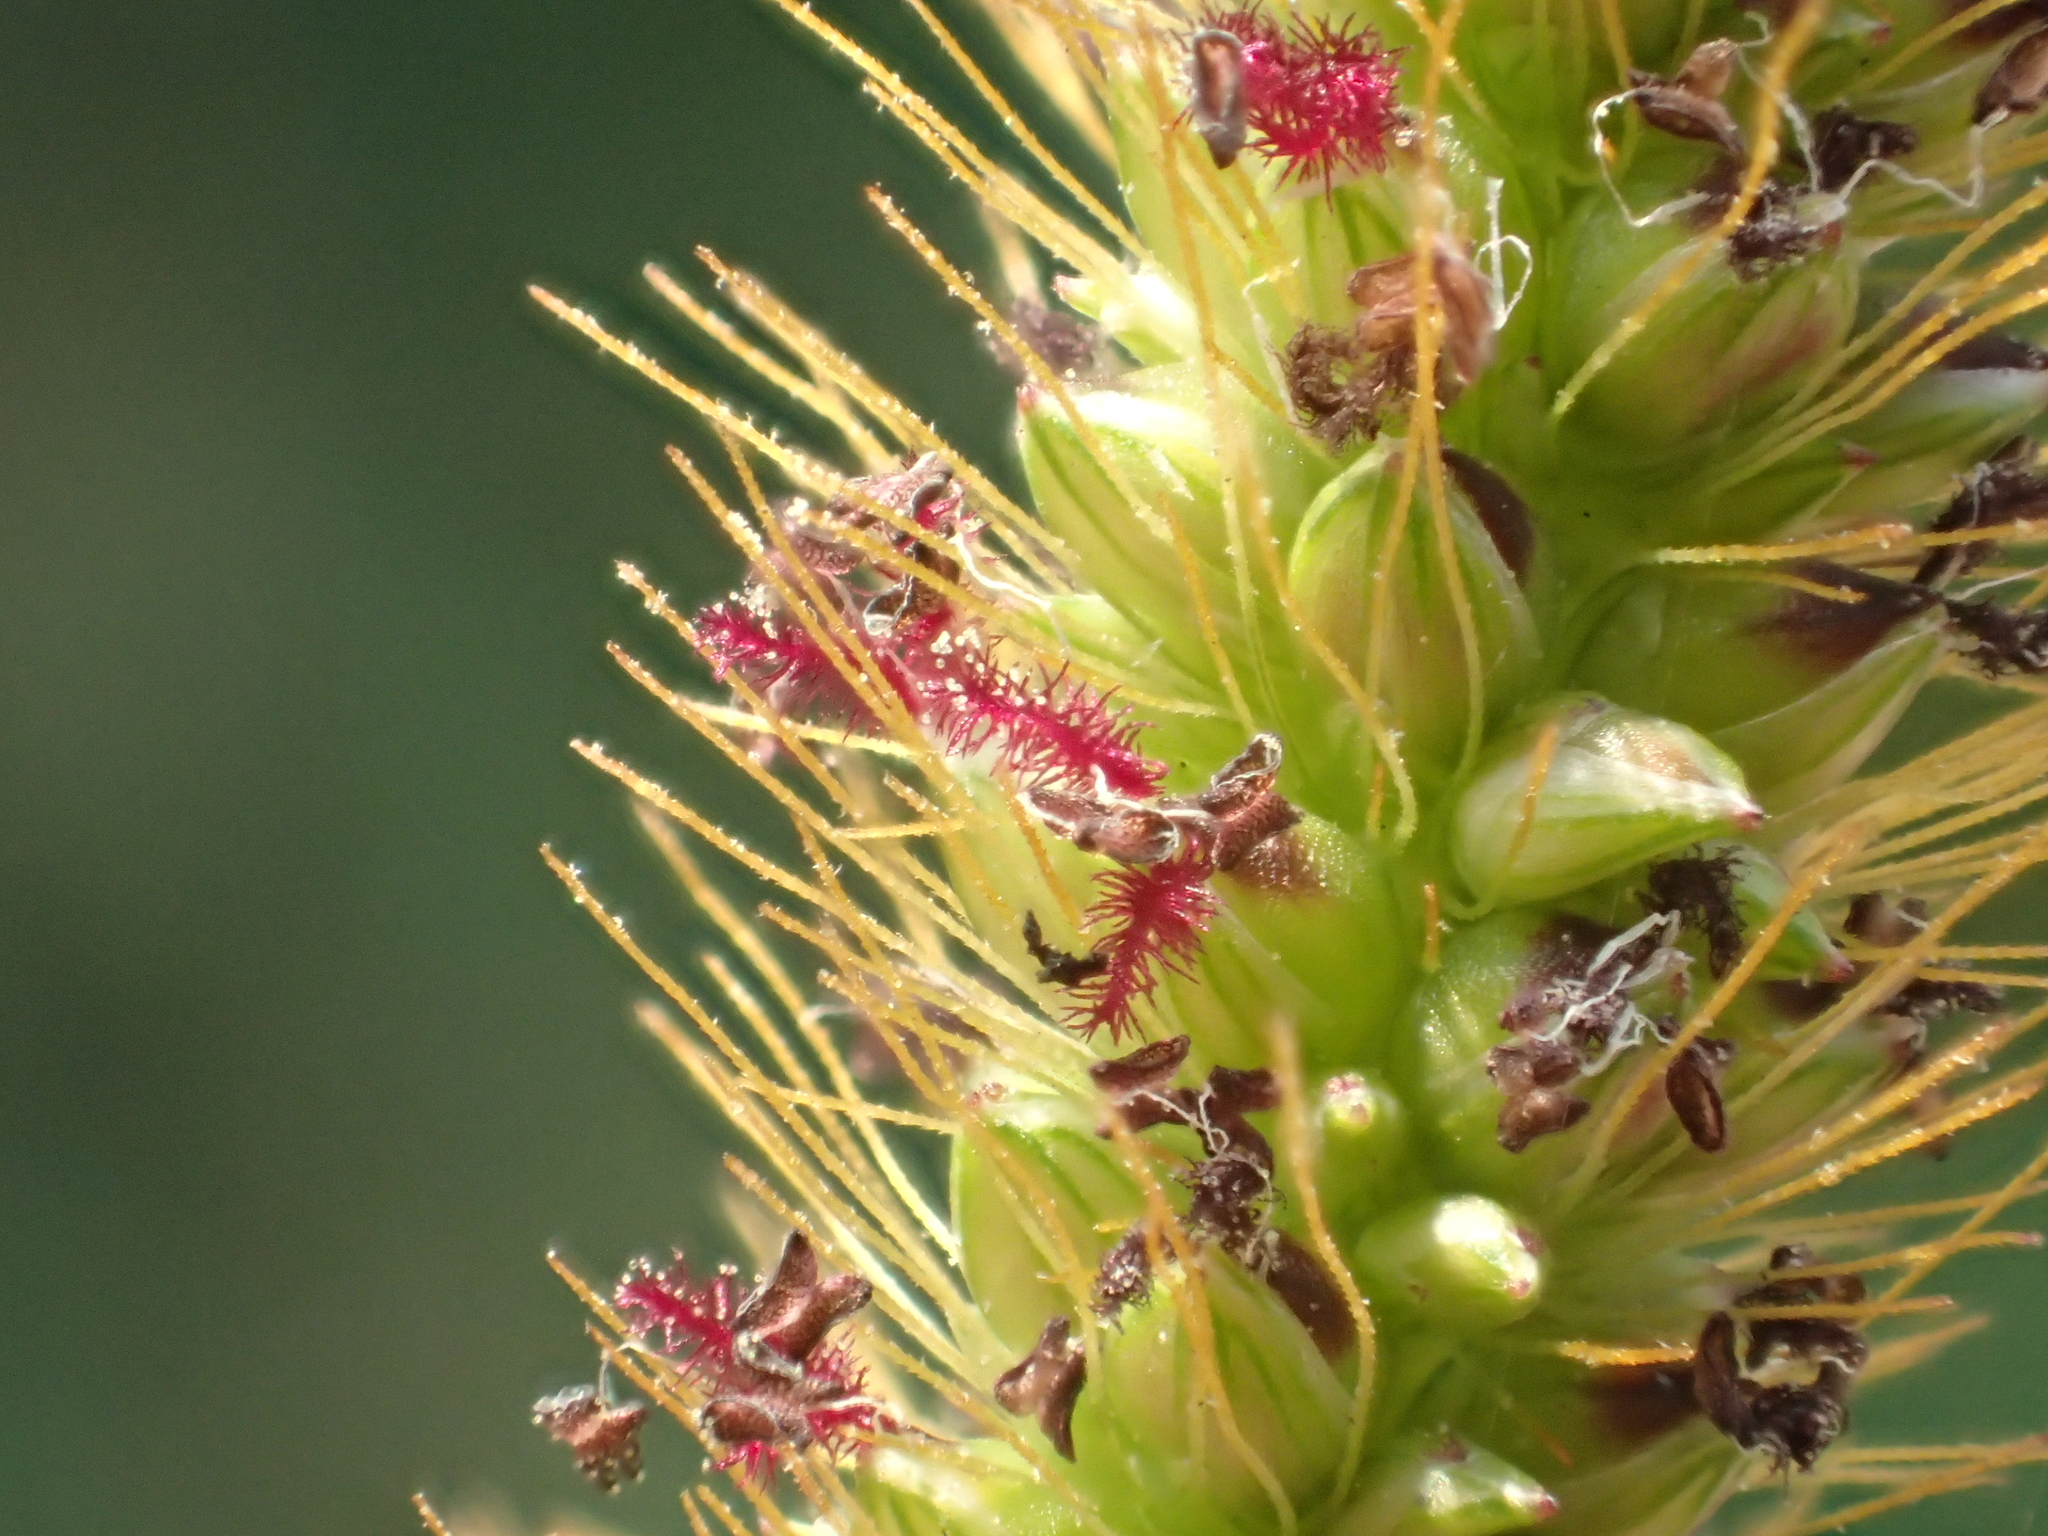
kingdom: Plantae
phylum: Tracheophyta
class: Liliopsida
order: Poales
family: Poaceae
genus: Setaria
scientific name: Setaria parviflora
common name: Knotroot bristle-grass
